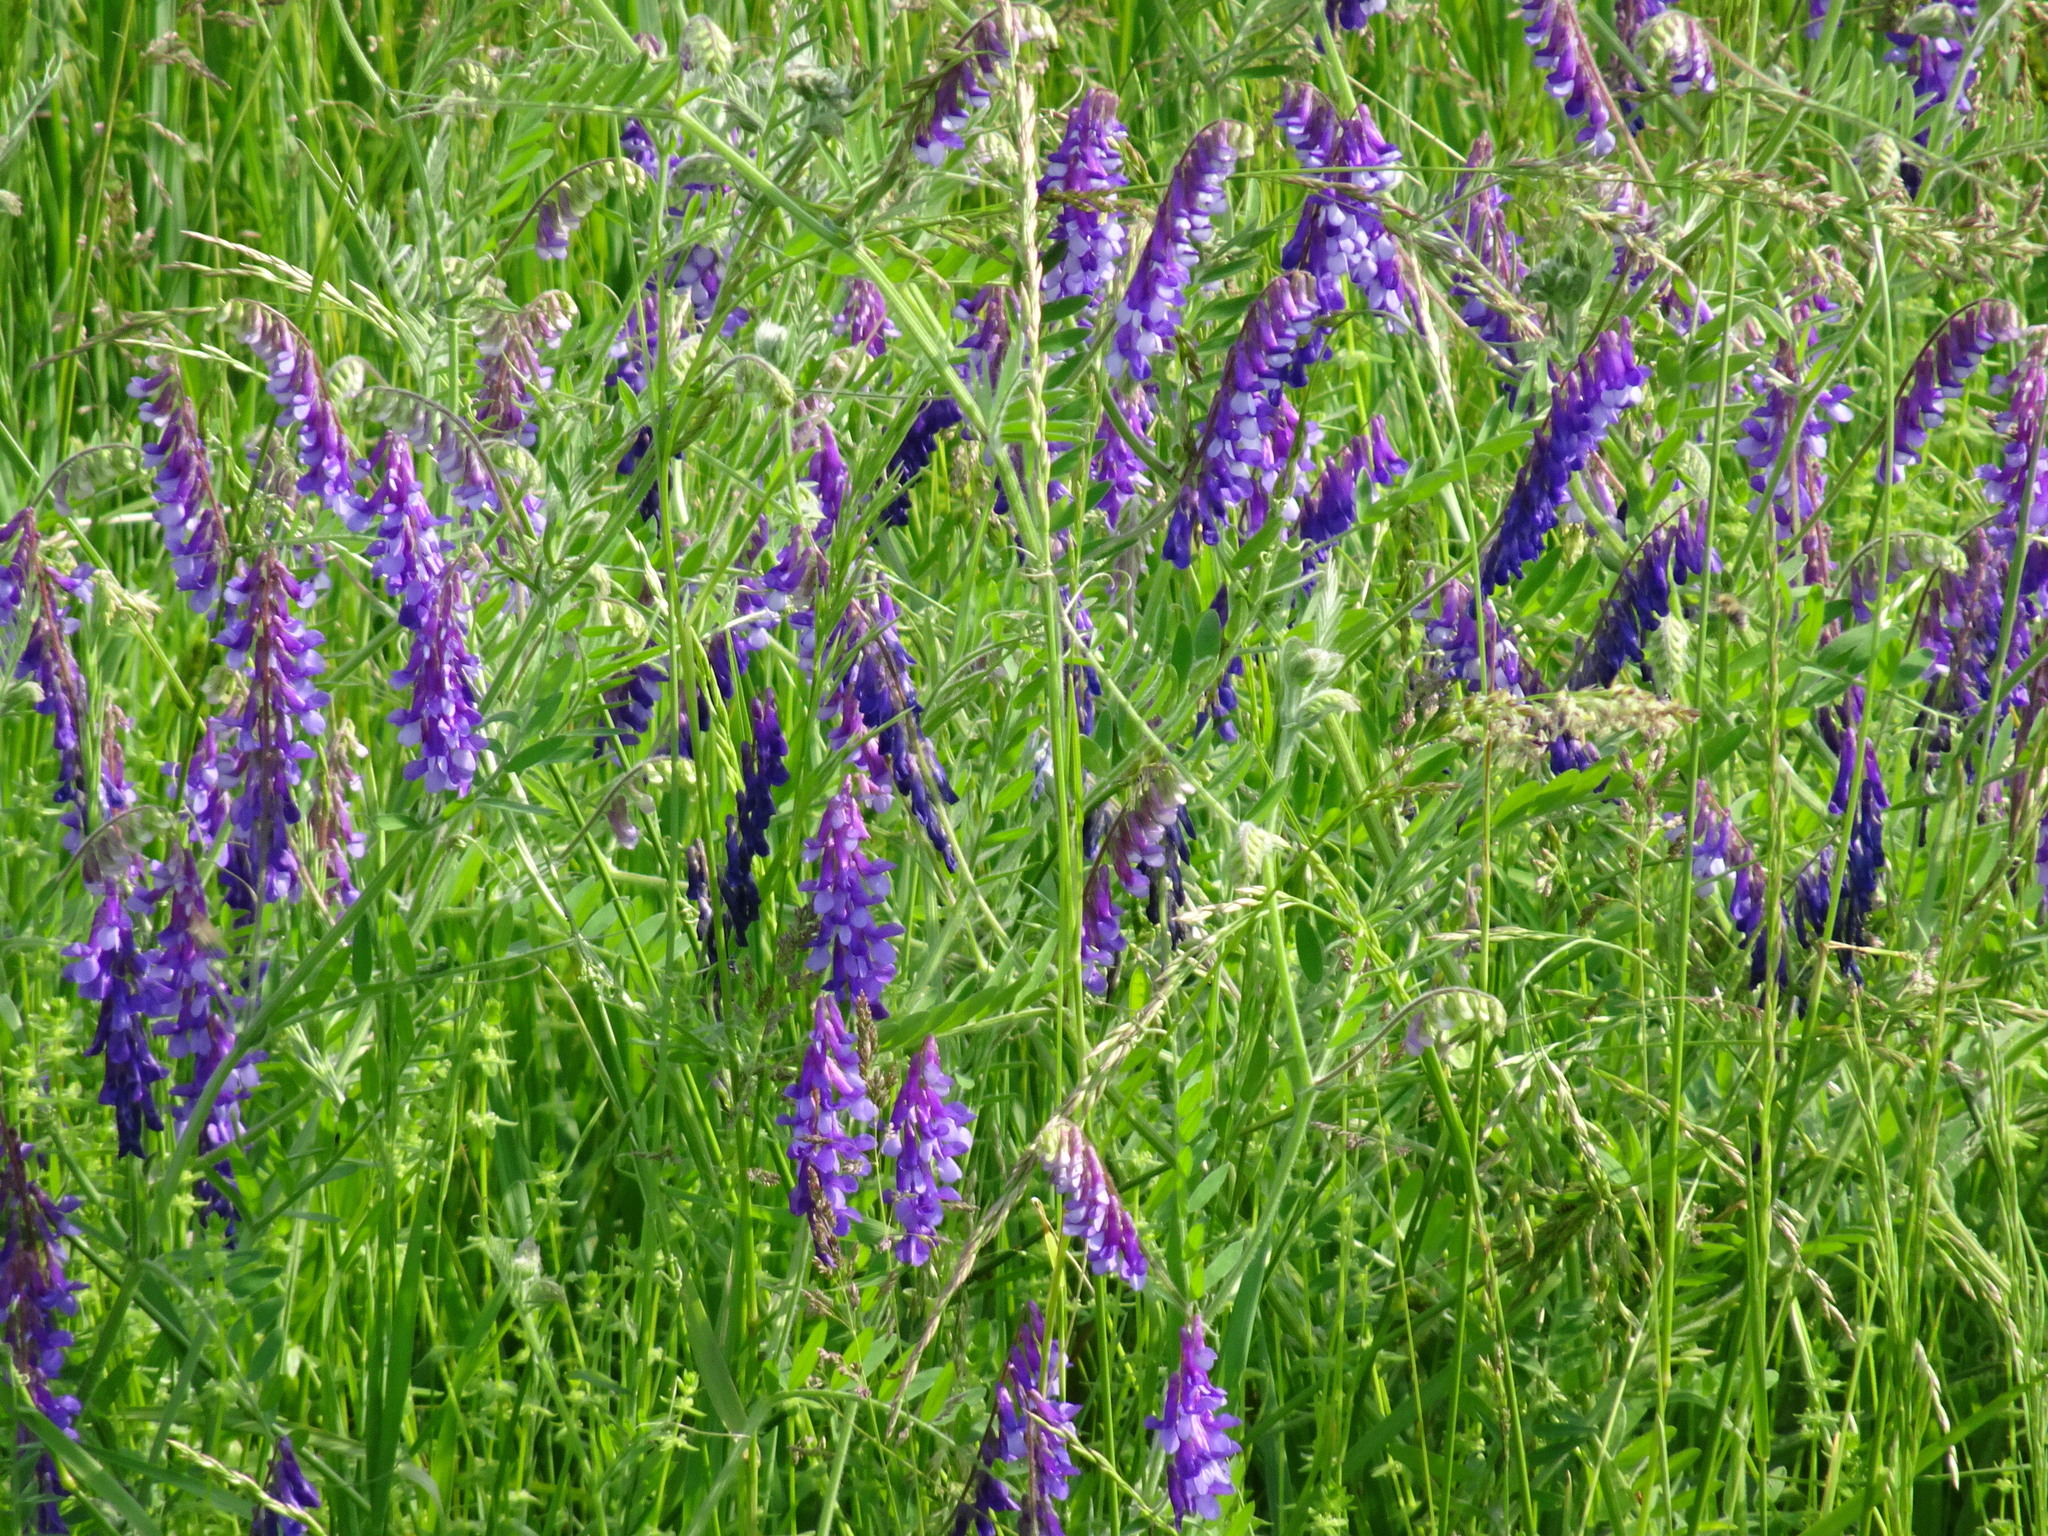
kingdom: Plantae
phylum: Tracheophyta
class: Magnoliopsida
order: Fabales
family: Fabaceae
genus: Vicia
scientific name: Vicia villosa
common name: Fodder vetch
